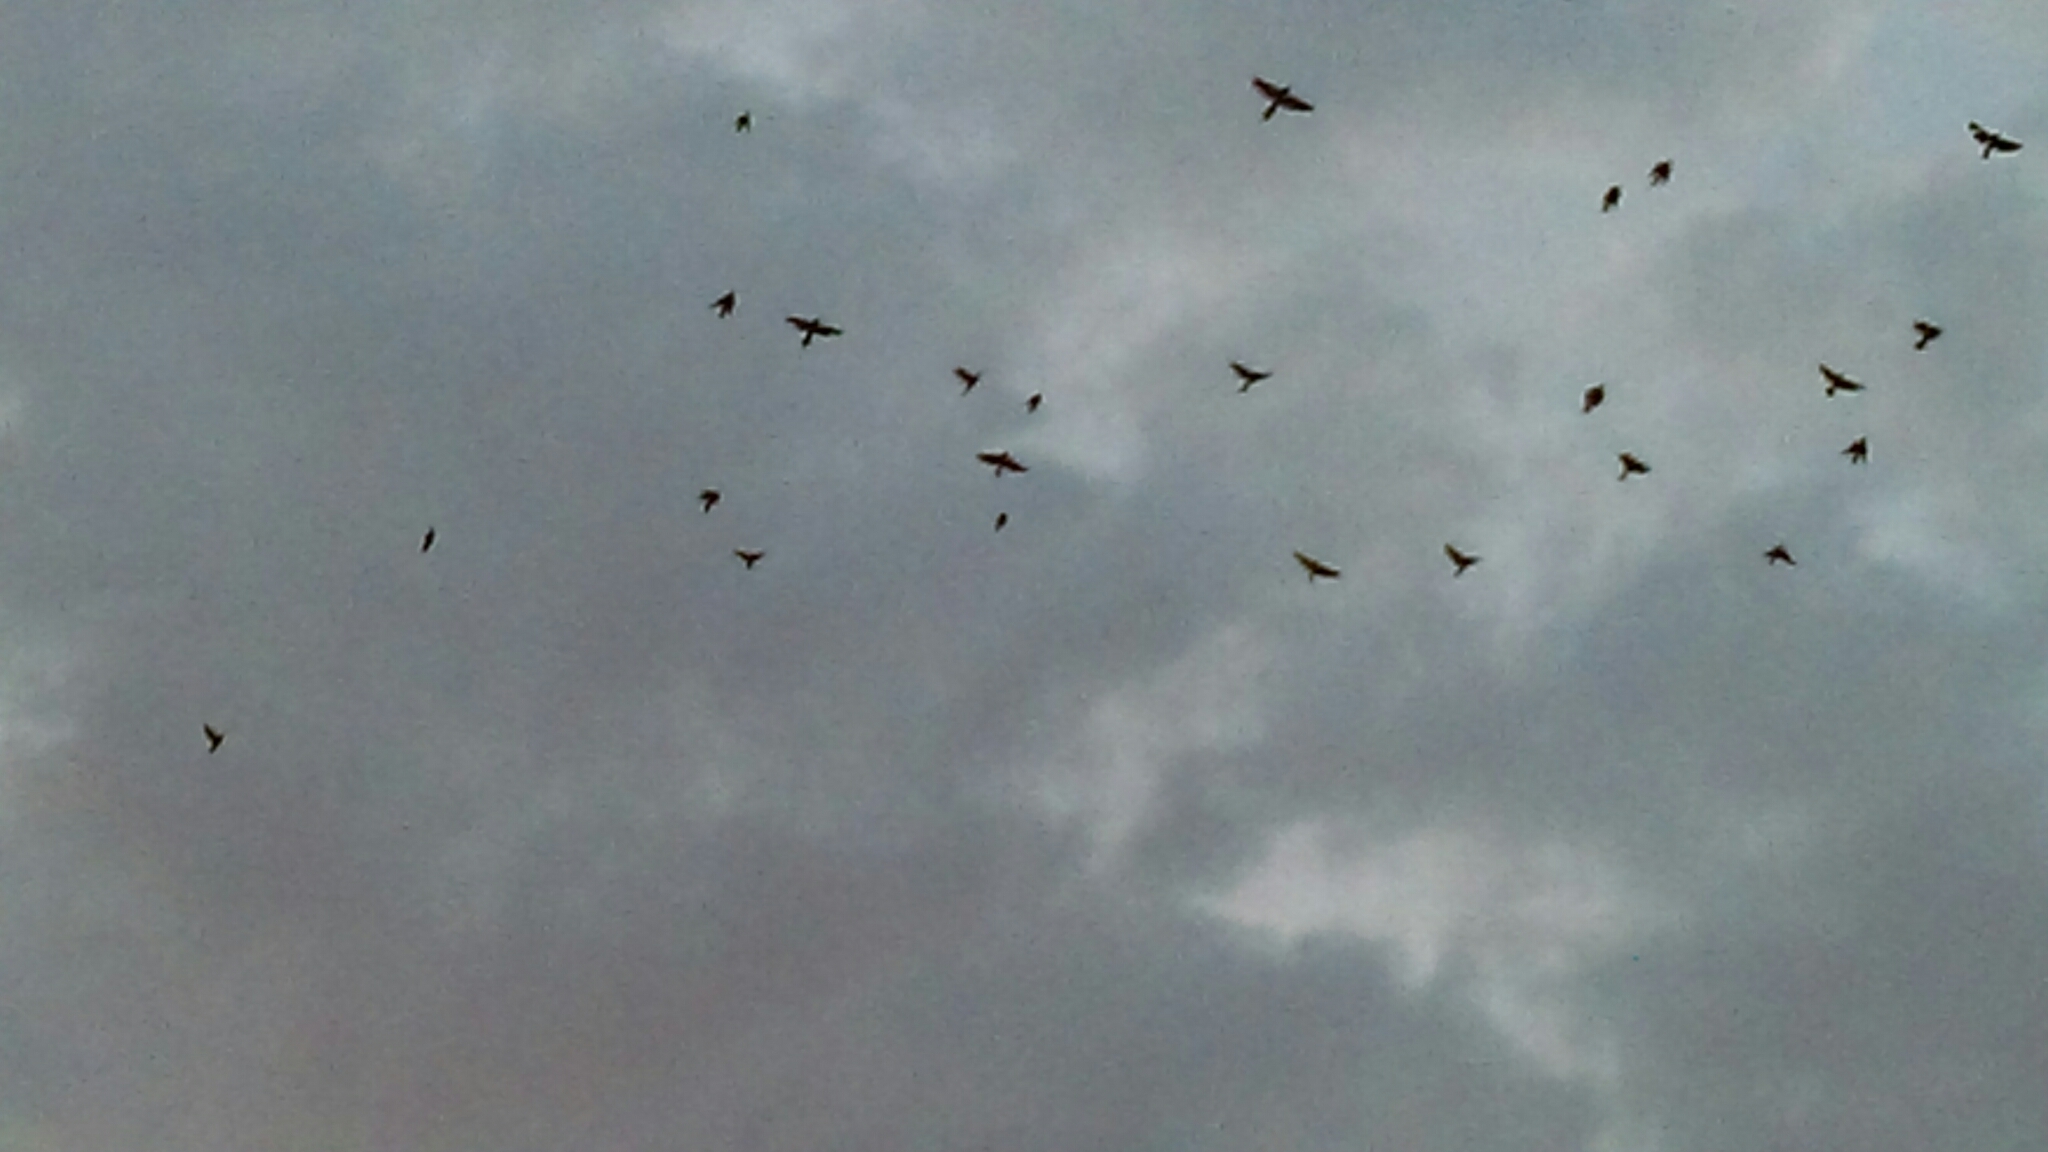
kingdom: Animalia
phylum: Chordata
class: Aves
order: Passeriformes
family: Icteridae
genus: Quiscalus
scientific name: Quiscalus quiscula
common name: Common grackle
